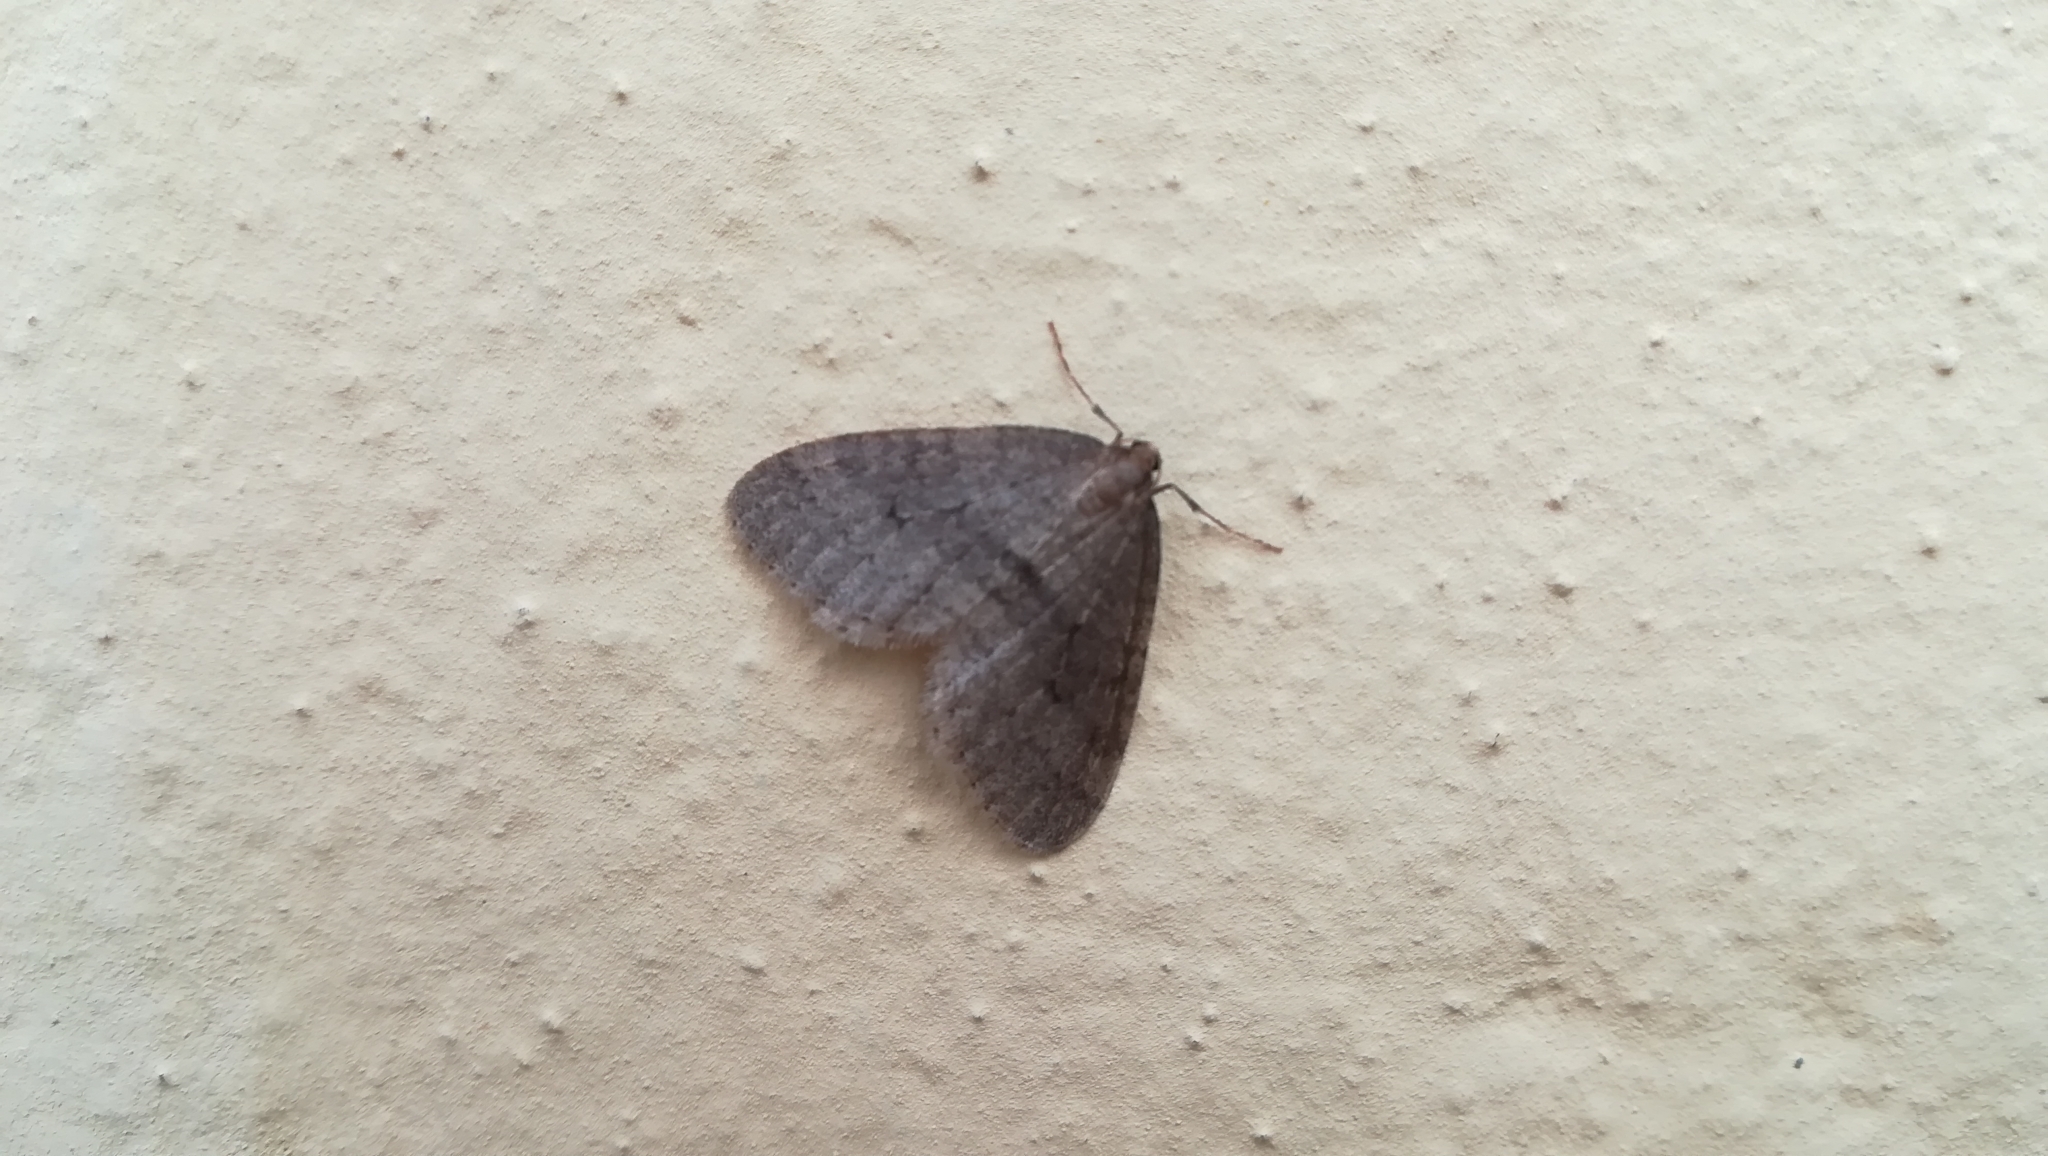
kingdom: Animalia
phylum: Arthropoda
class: Insecta
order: Lepidoptera
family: Geometridae
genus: Operophtera
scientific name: Operophtera brumata
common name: Winter moth
